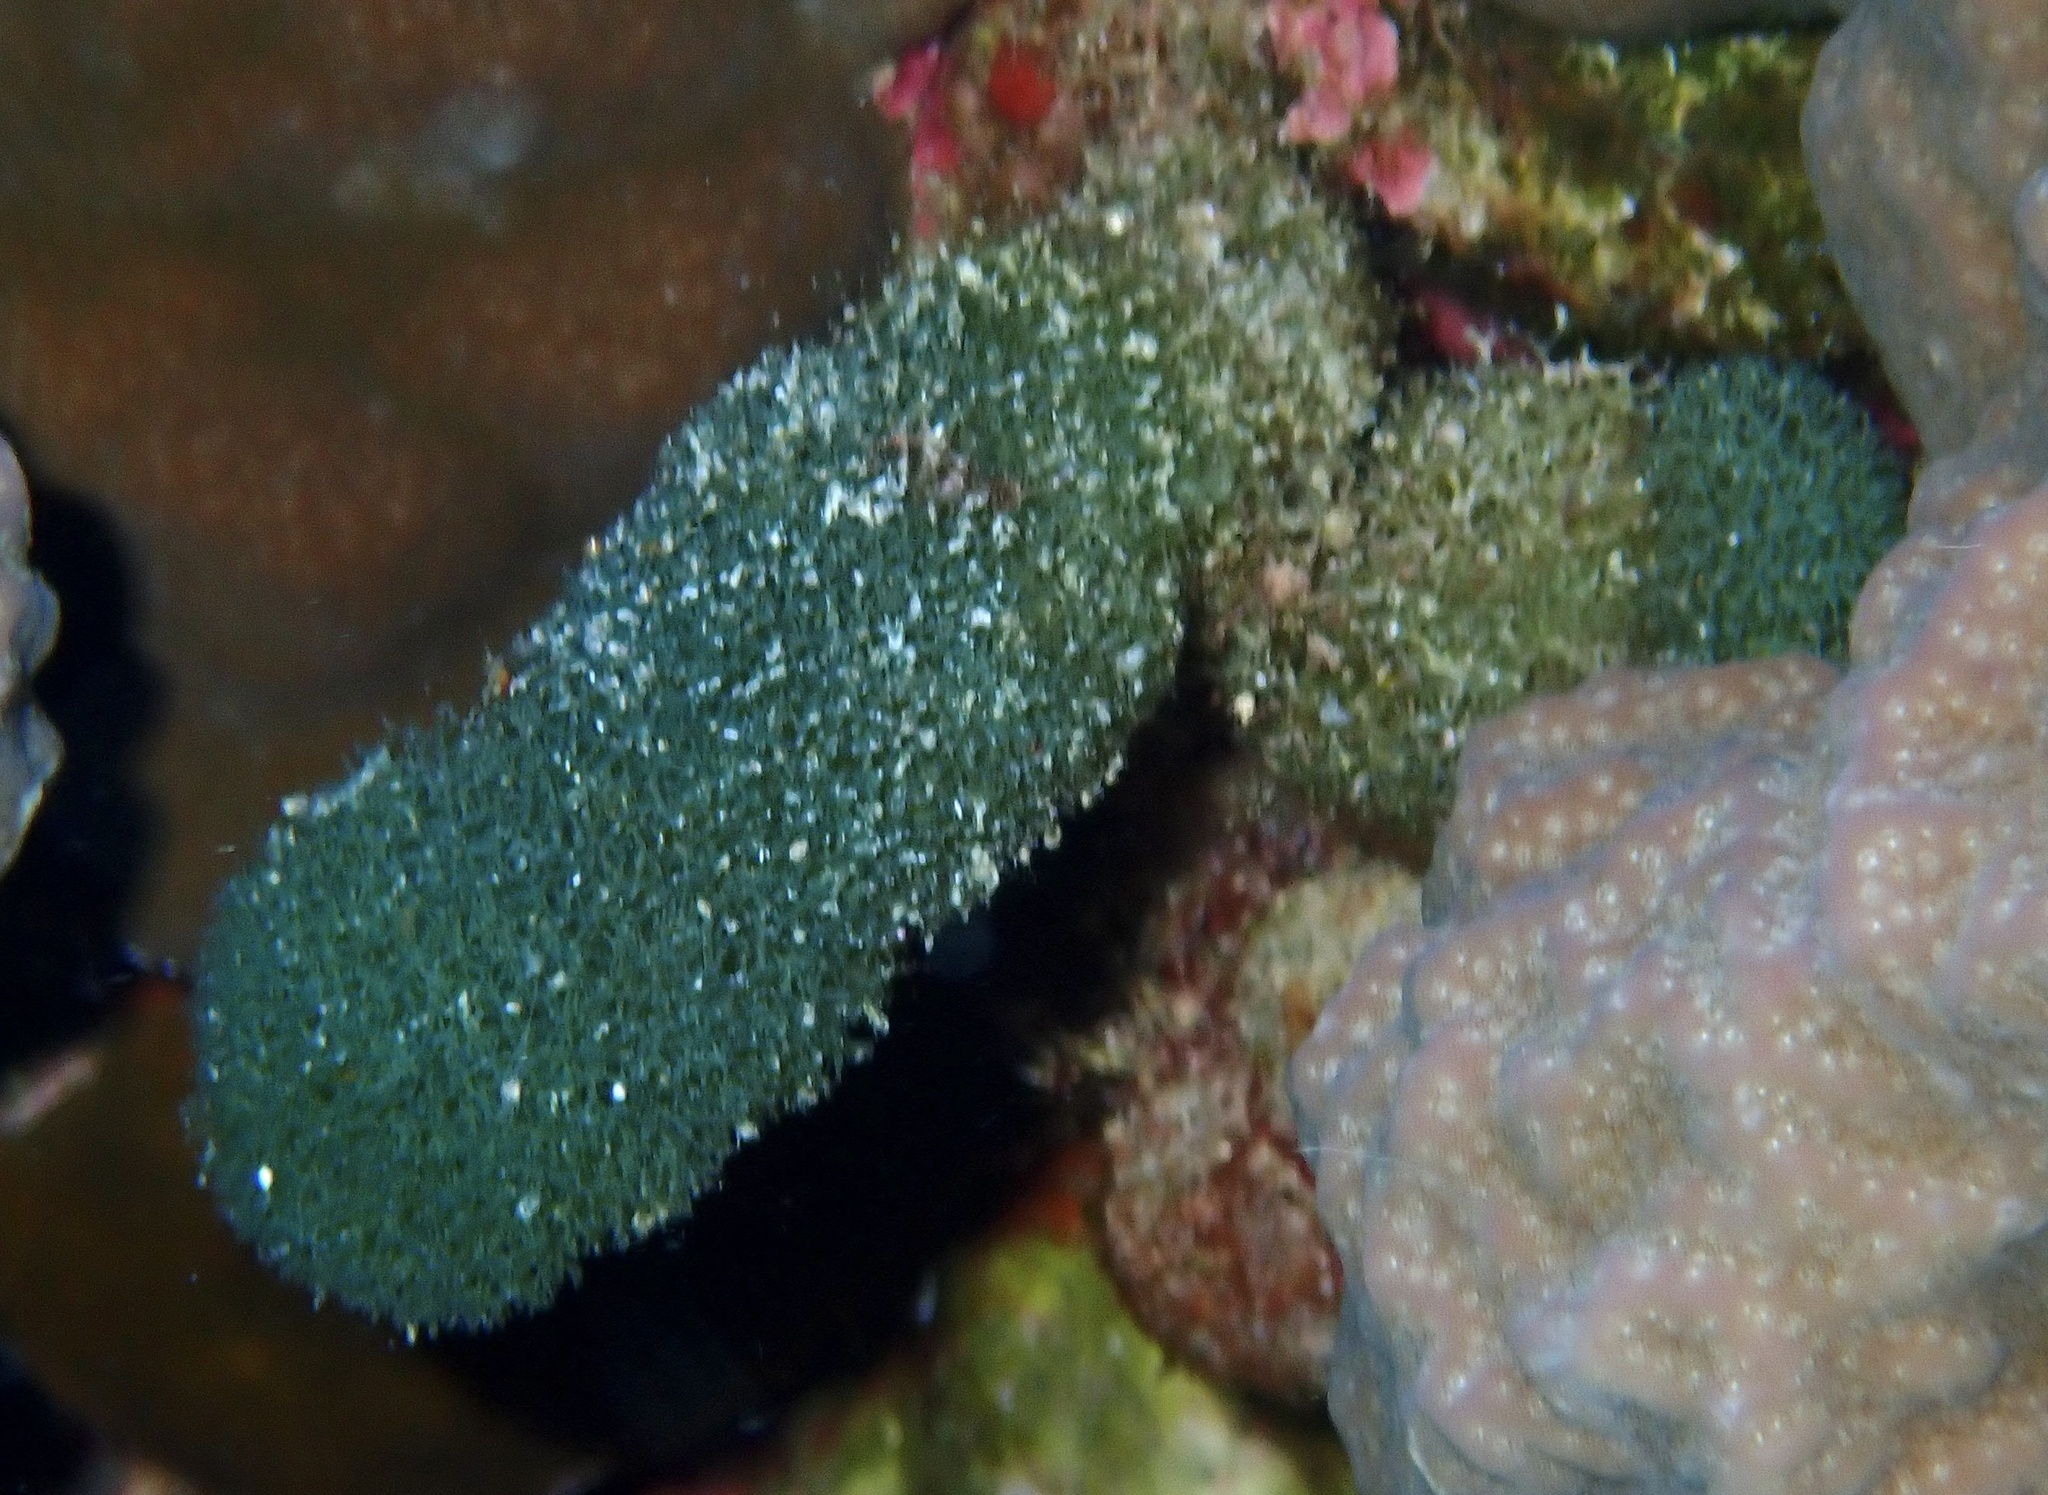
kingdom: Plantae
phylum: Chlorophyta
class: Ulvophyceae
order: Bryopsidales
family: Udoteaceae
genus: Tydemania
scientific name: Tydemania expeditionis
